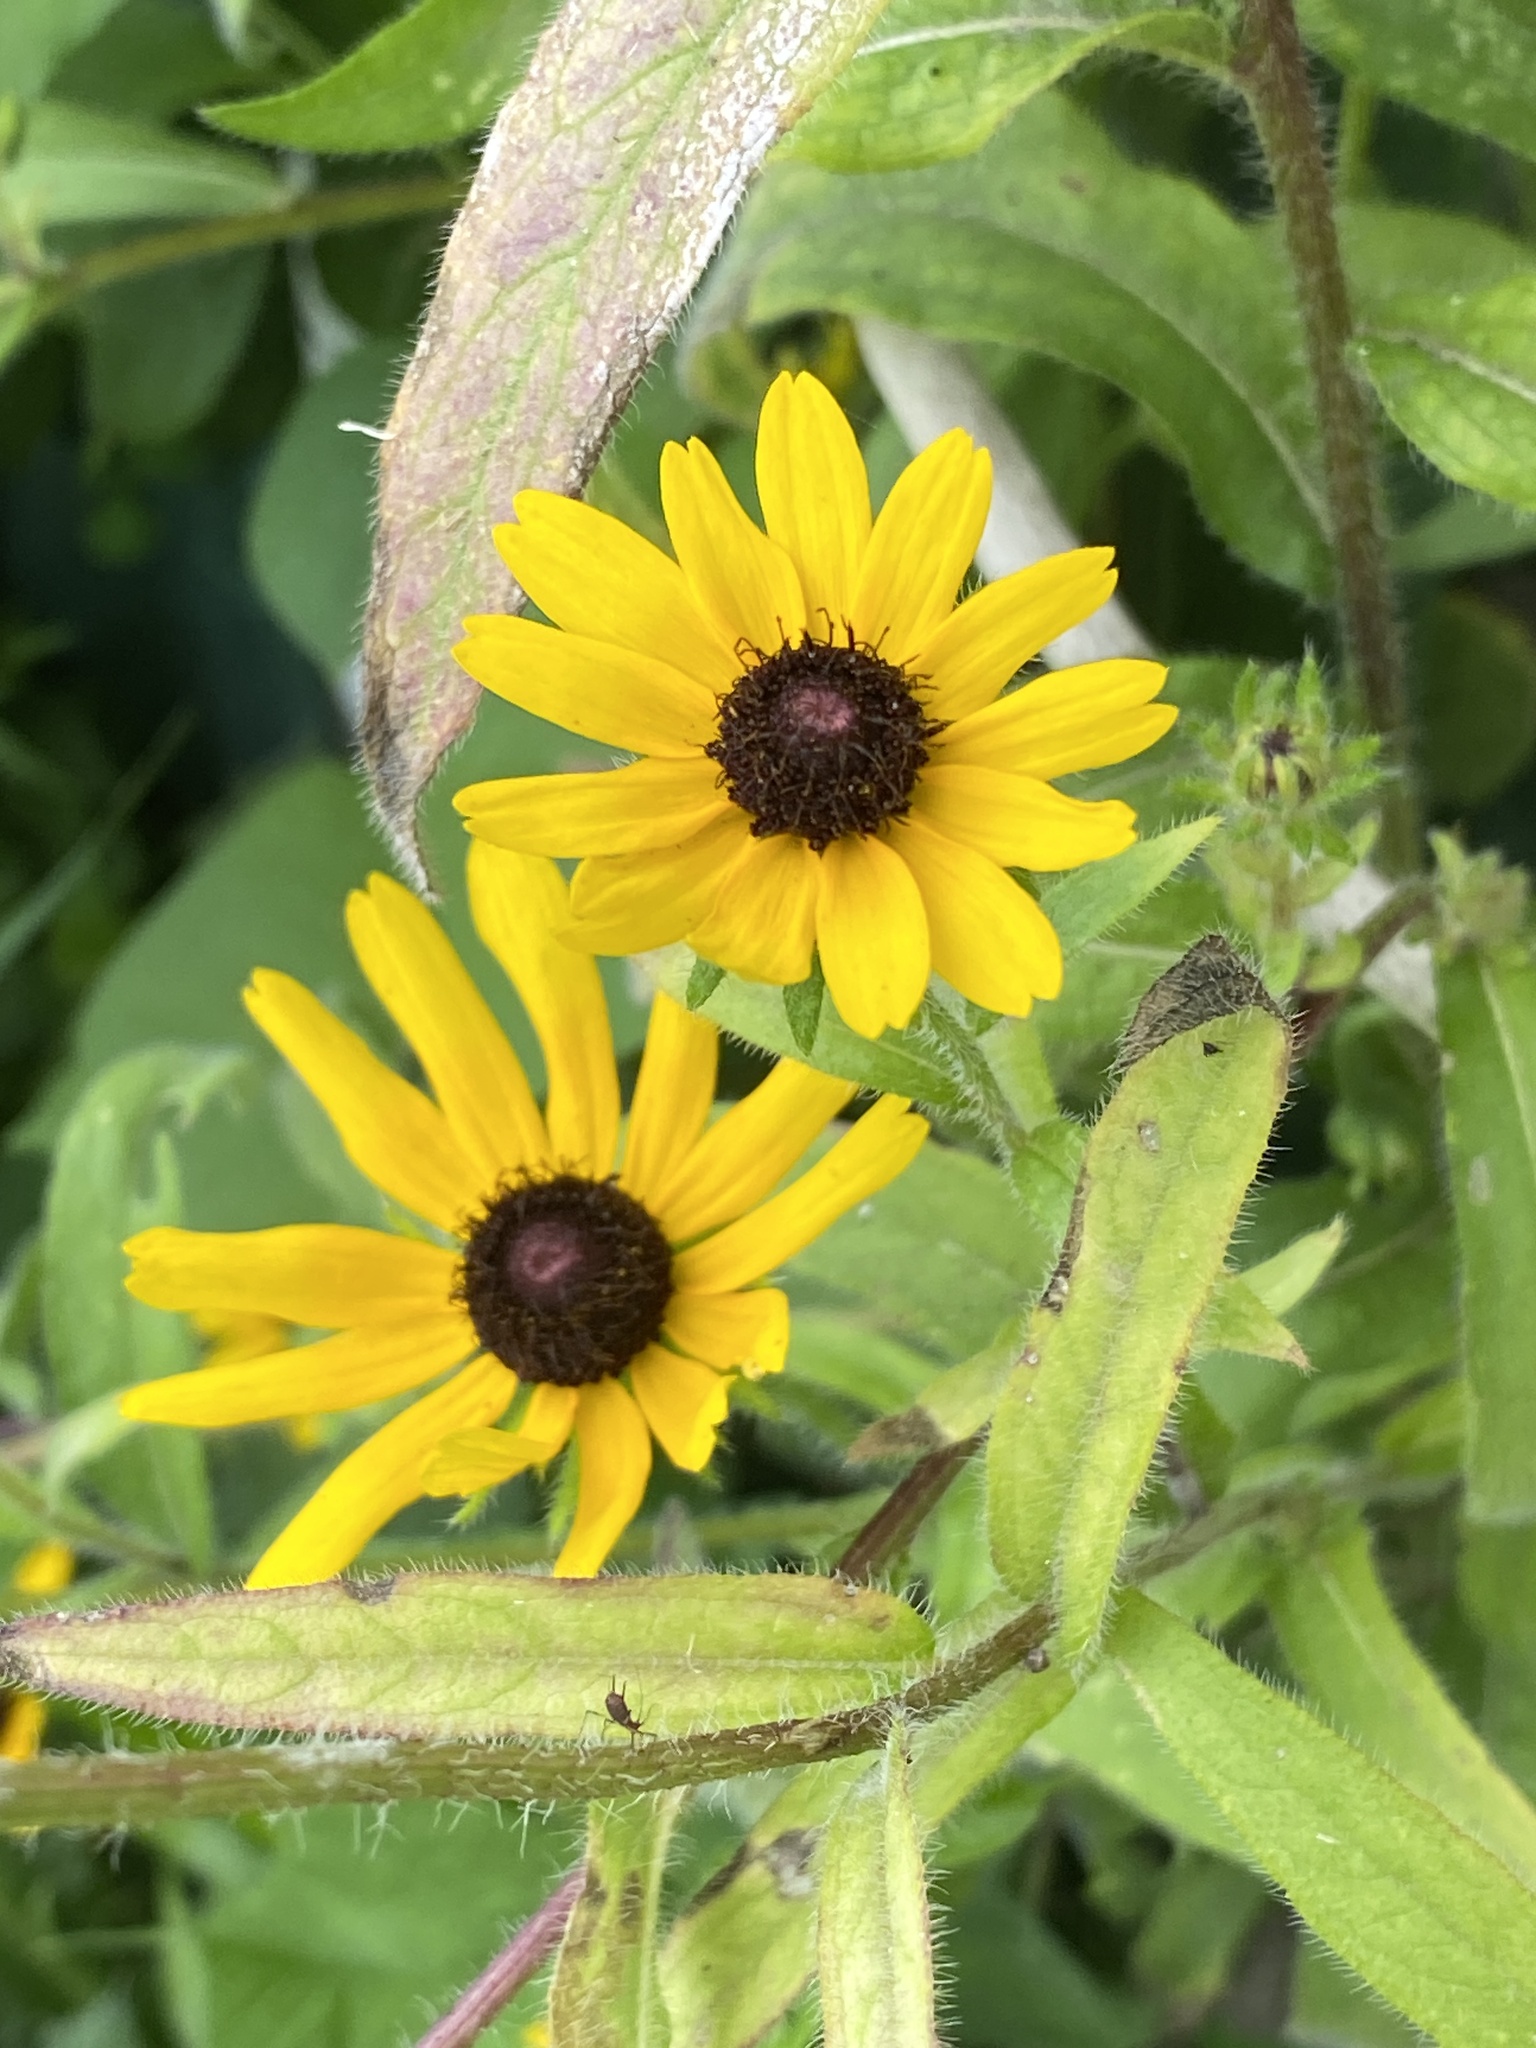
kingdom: Plantae
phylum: Tracheophyta
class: Magnoliopsida
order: Asterales
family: Asteraceae
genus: Rudbeckia
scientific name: Rudbeckia hirta
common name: Black-eyed-susan
